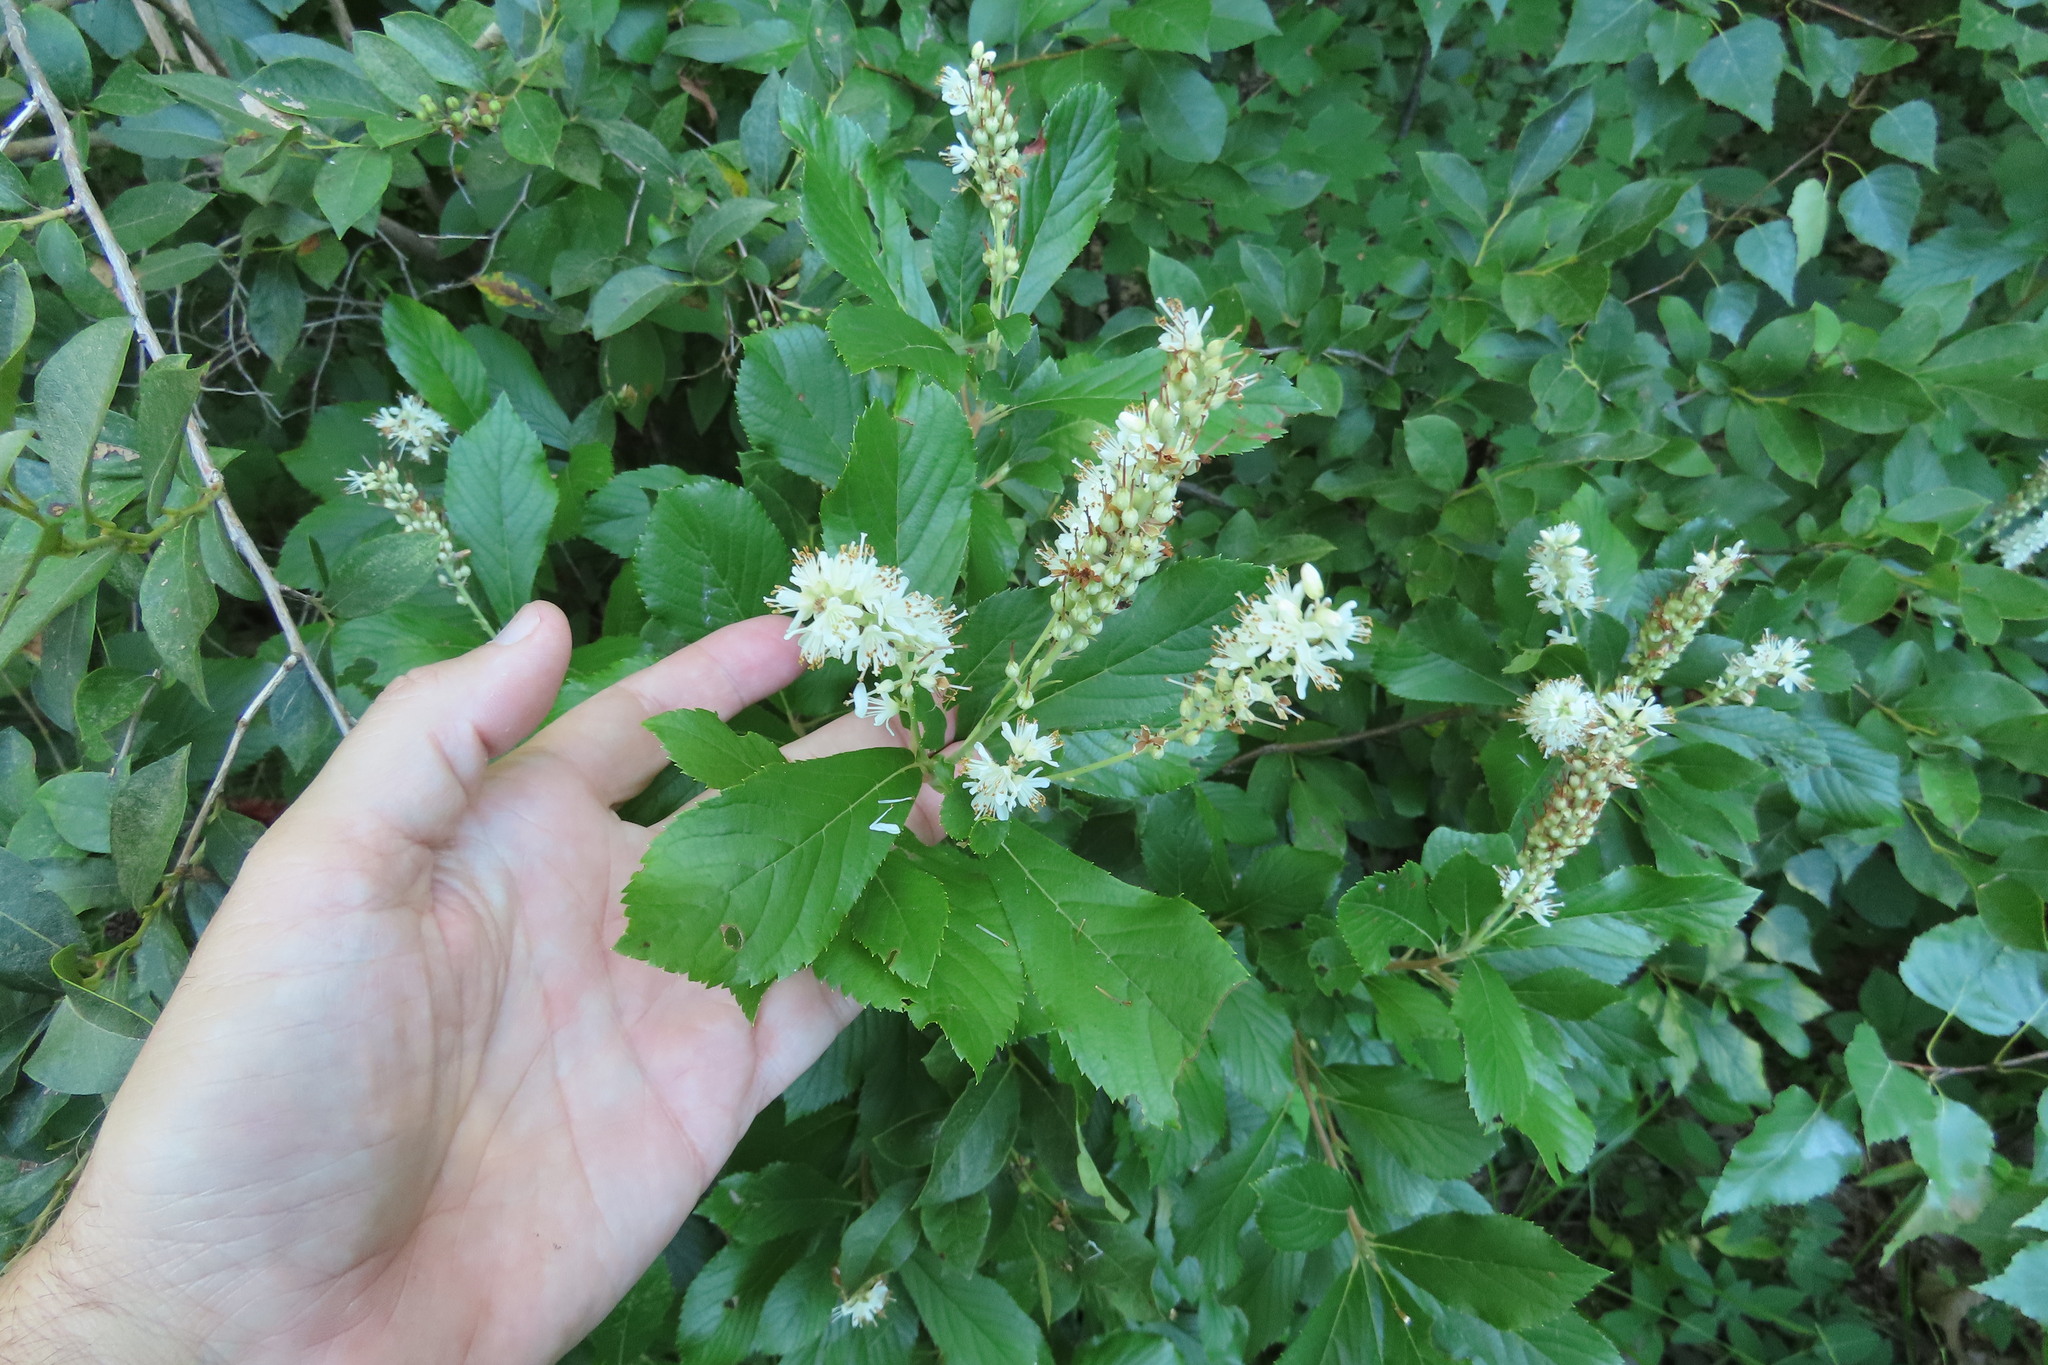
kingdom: Plantae
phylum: Tracheophyta
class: Magnoliopsida
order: Ericales
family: Clethraceae
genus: Clethra
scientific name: Clethra alnifolia
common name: Sweet pepperbush
